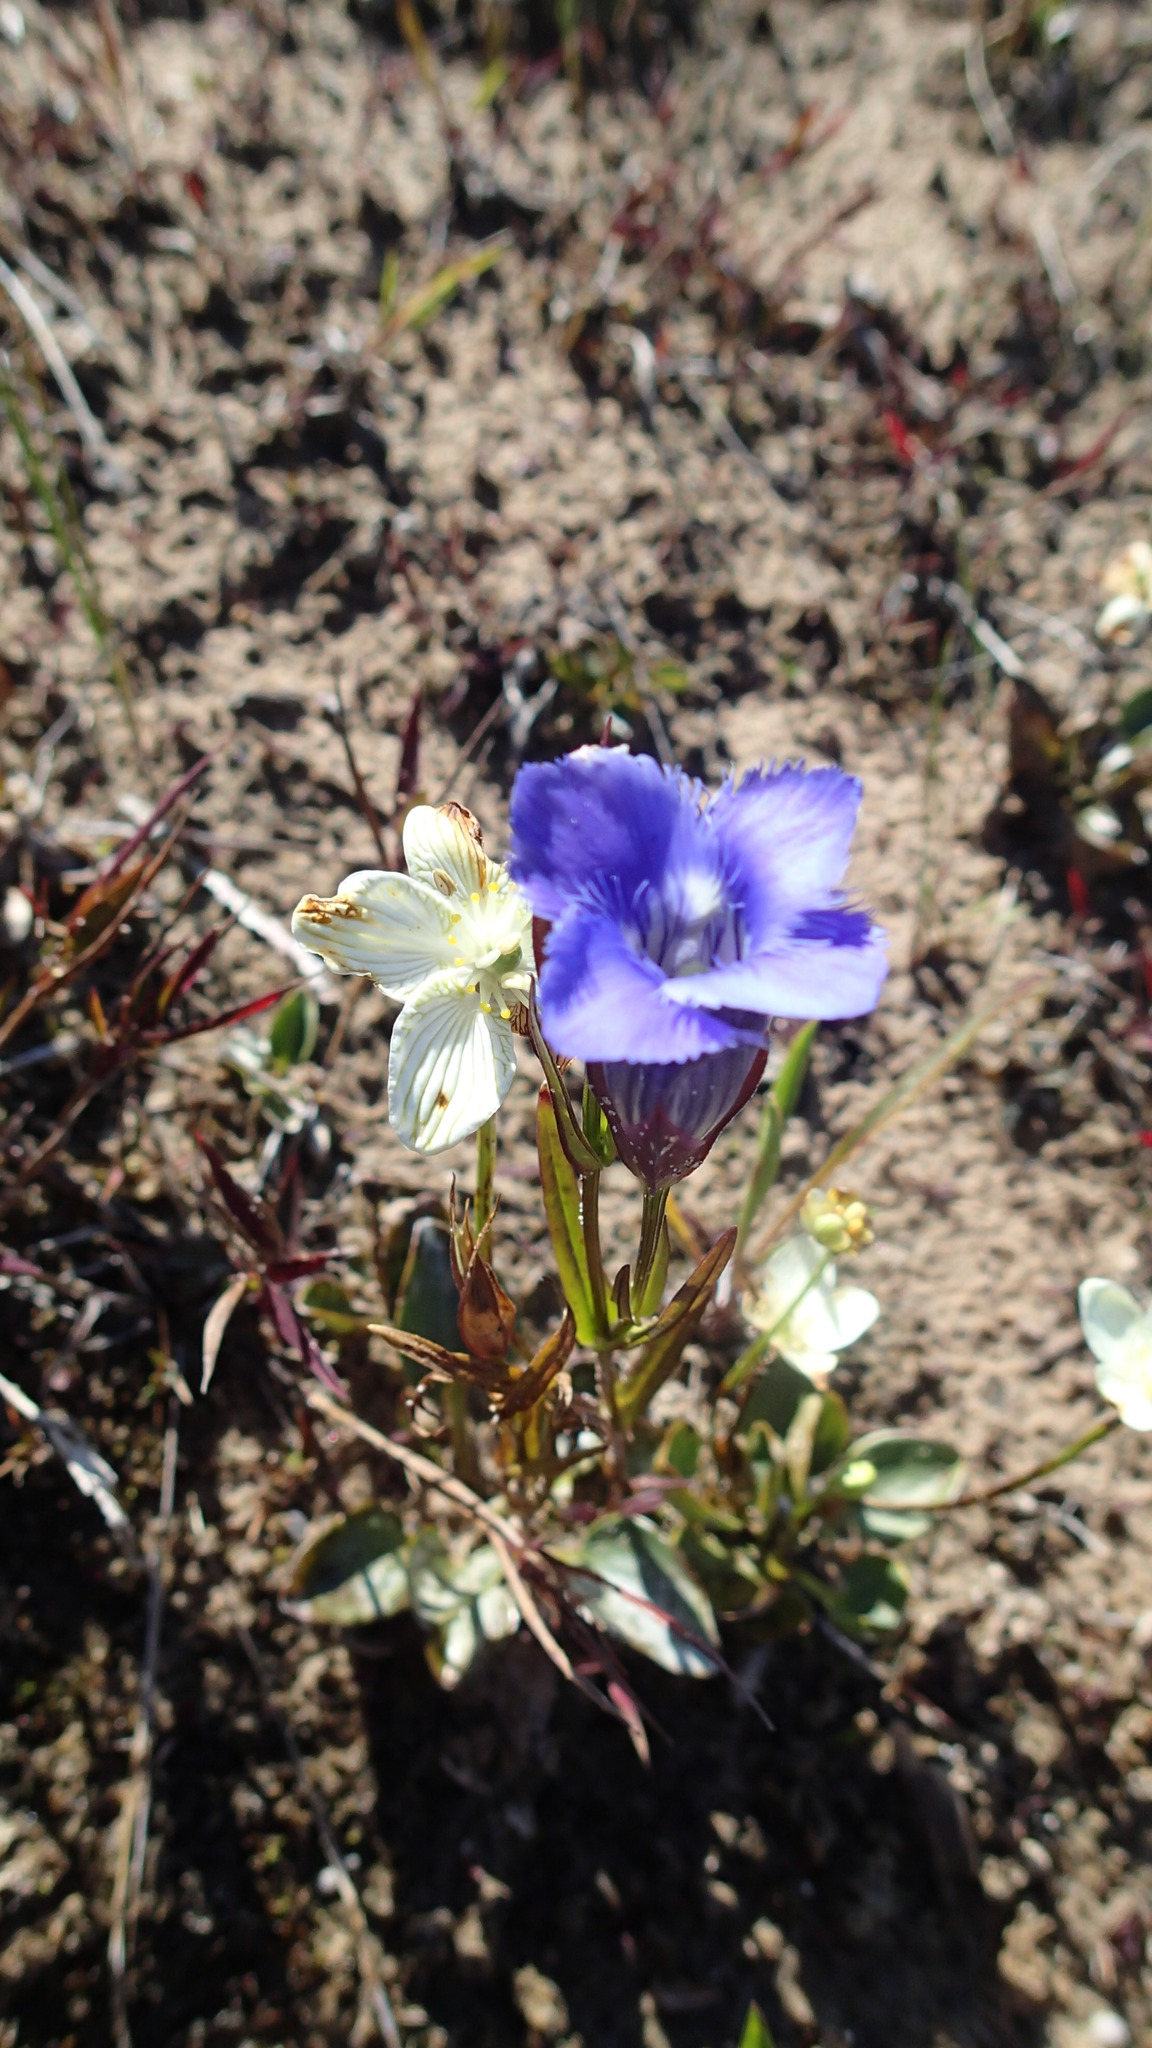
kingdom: Plantae
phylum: Tracheophyta
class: Magnoliopsida
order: Gentianales
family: Gentianaceae
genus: Gentianopsis
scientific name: Gentianopsis virgata
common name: Lesser fringed-gentian
